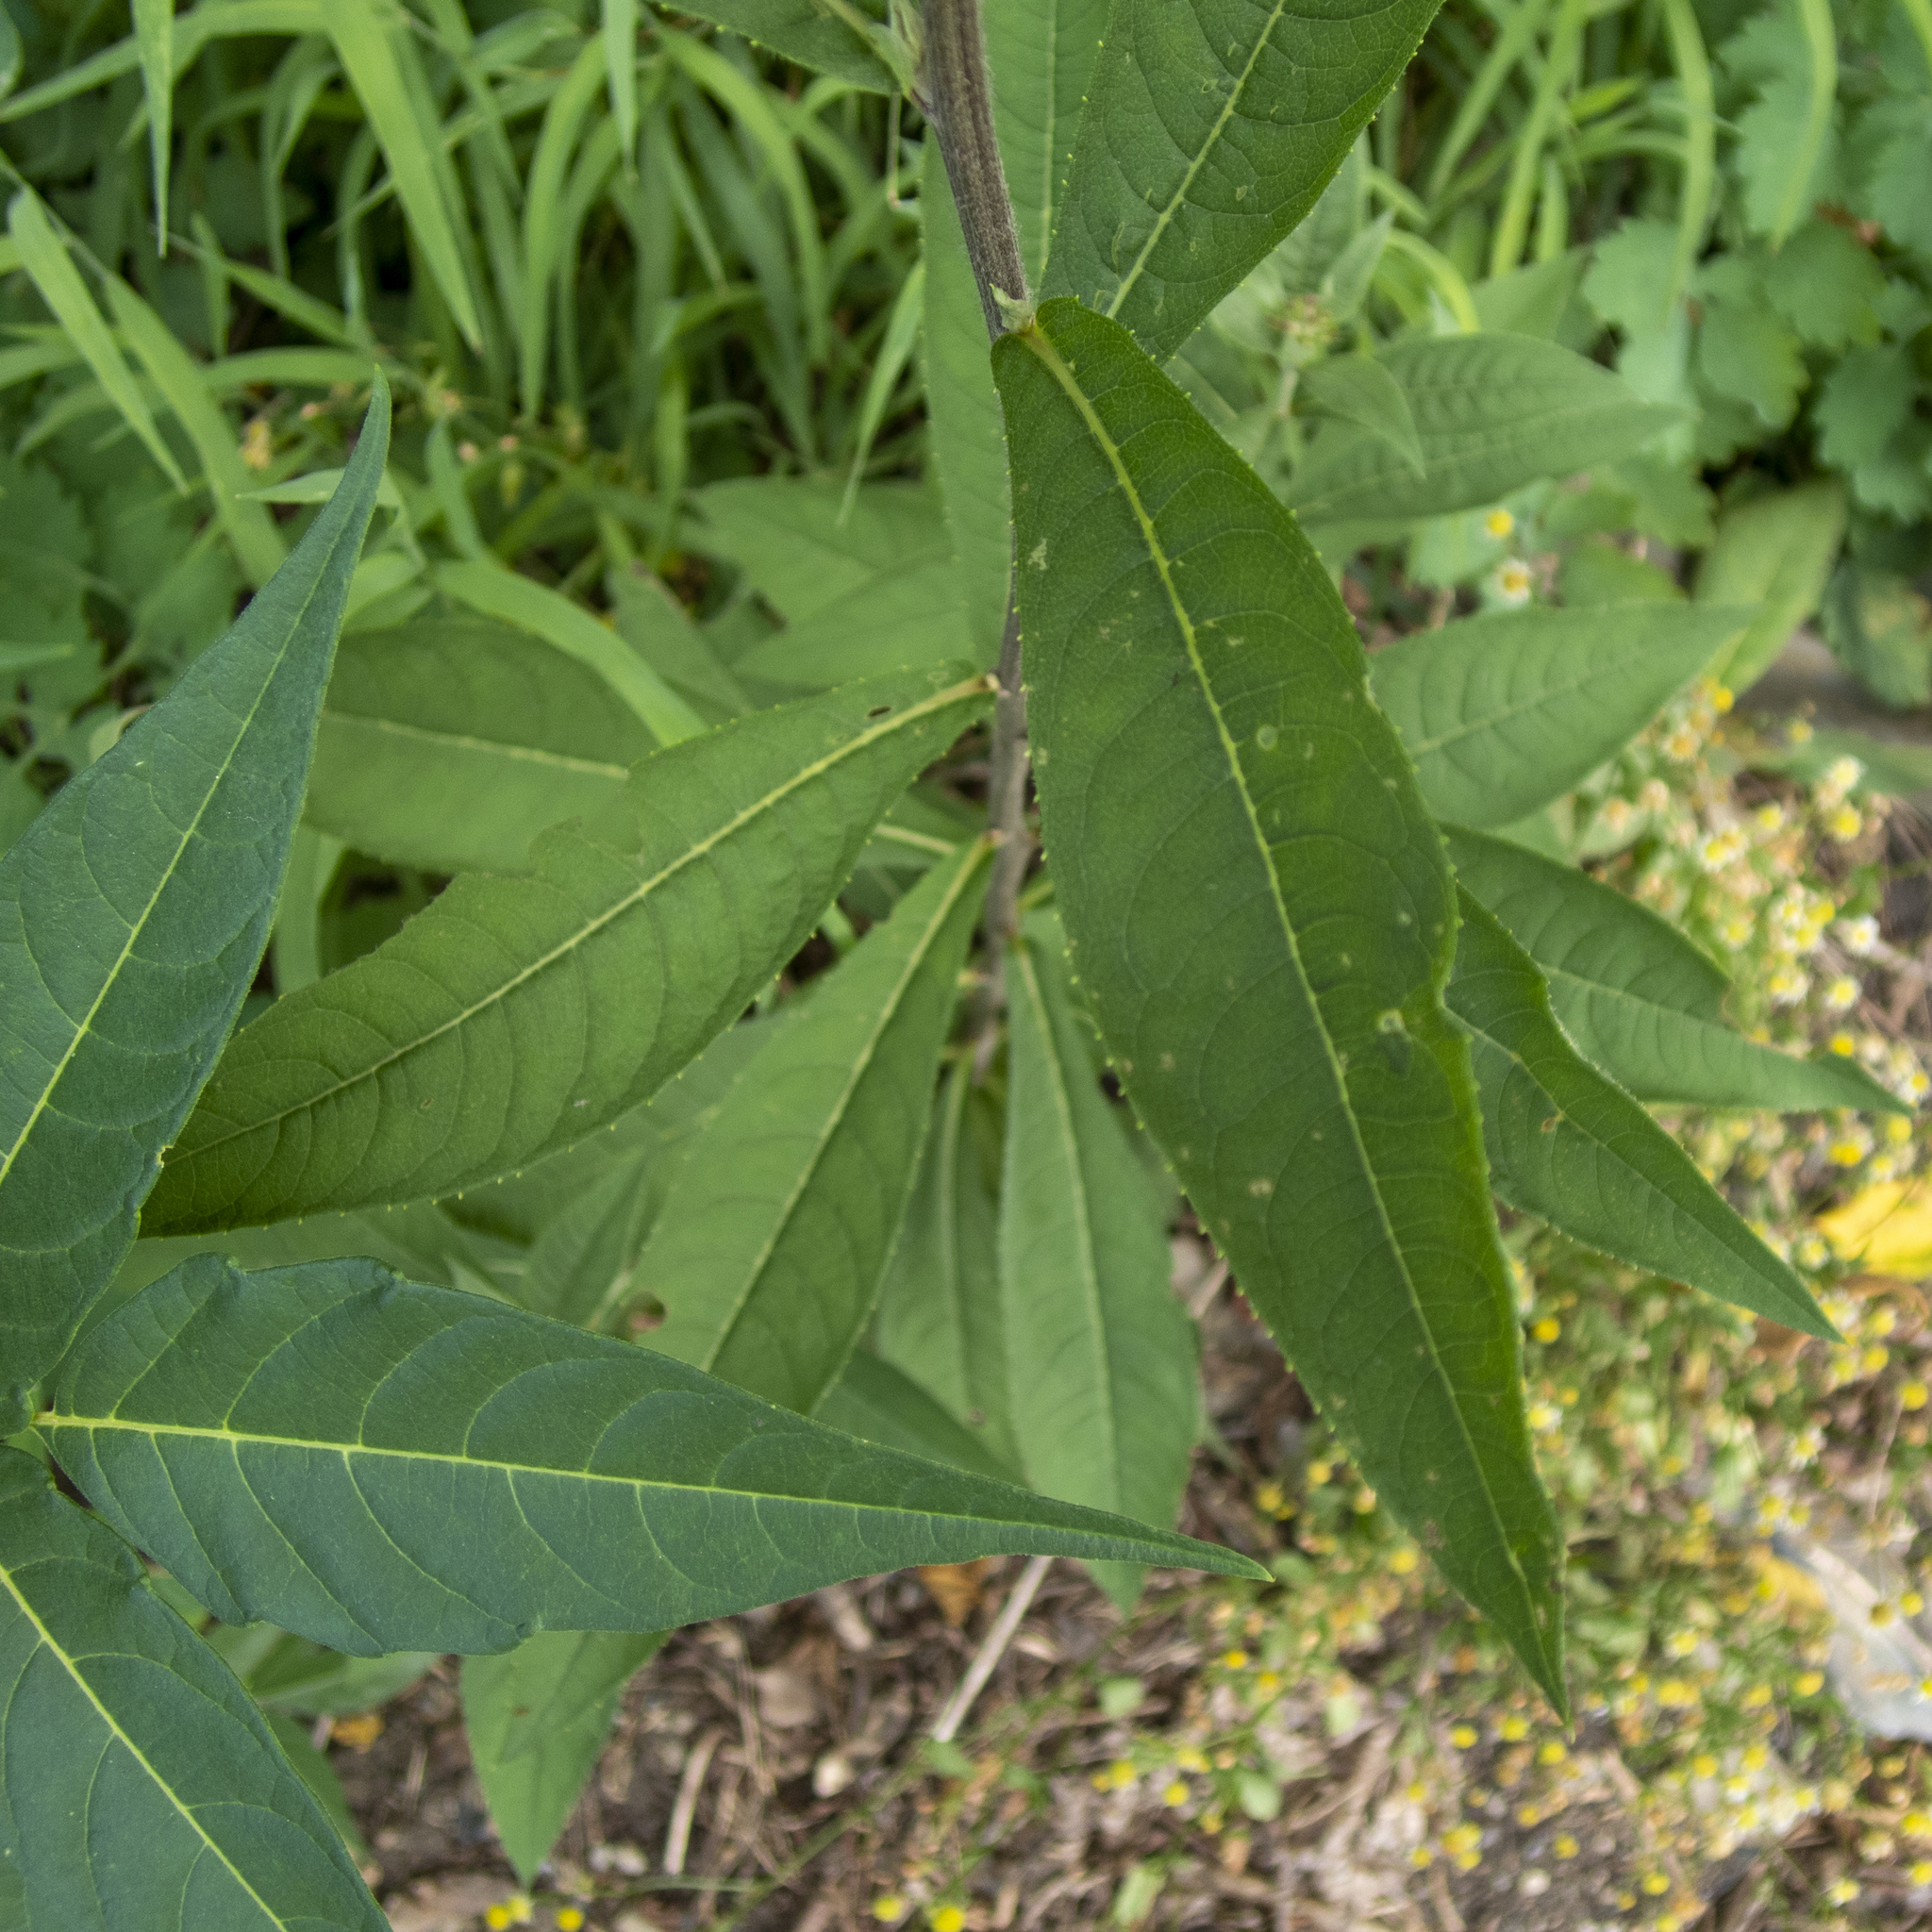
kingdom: Plantae
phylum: Tracheophyta
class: Magnoliopsida
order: Asterales
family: Asteraceae
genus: Vernonia
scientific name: Vernonia noveboracensis
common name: New york ironweed
